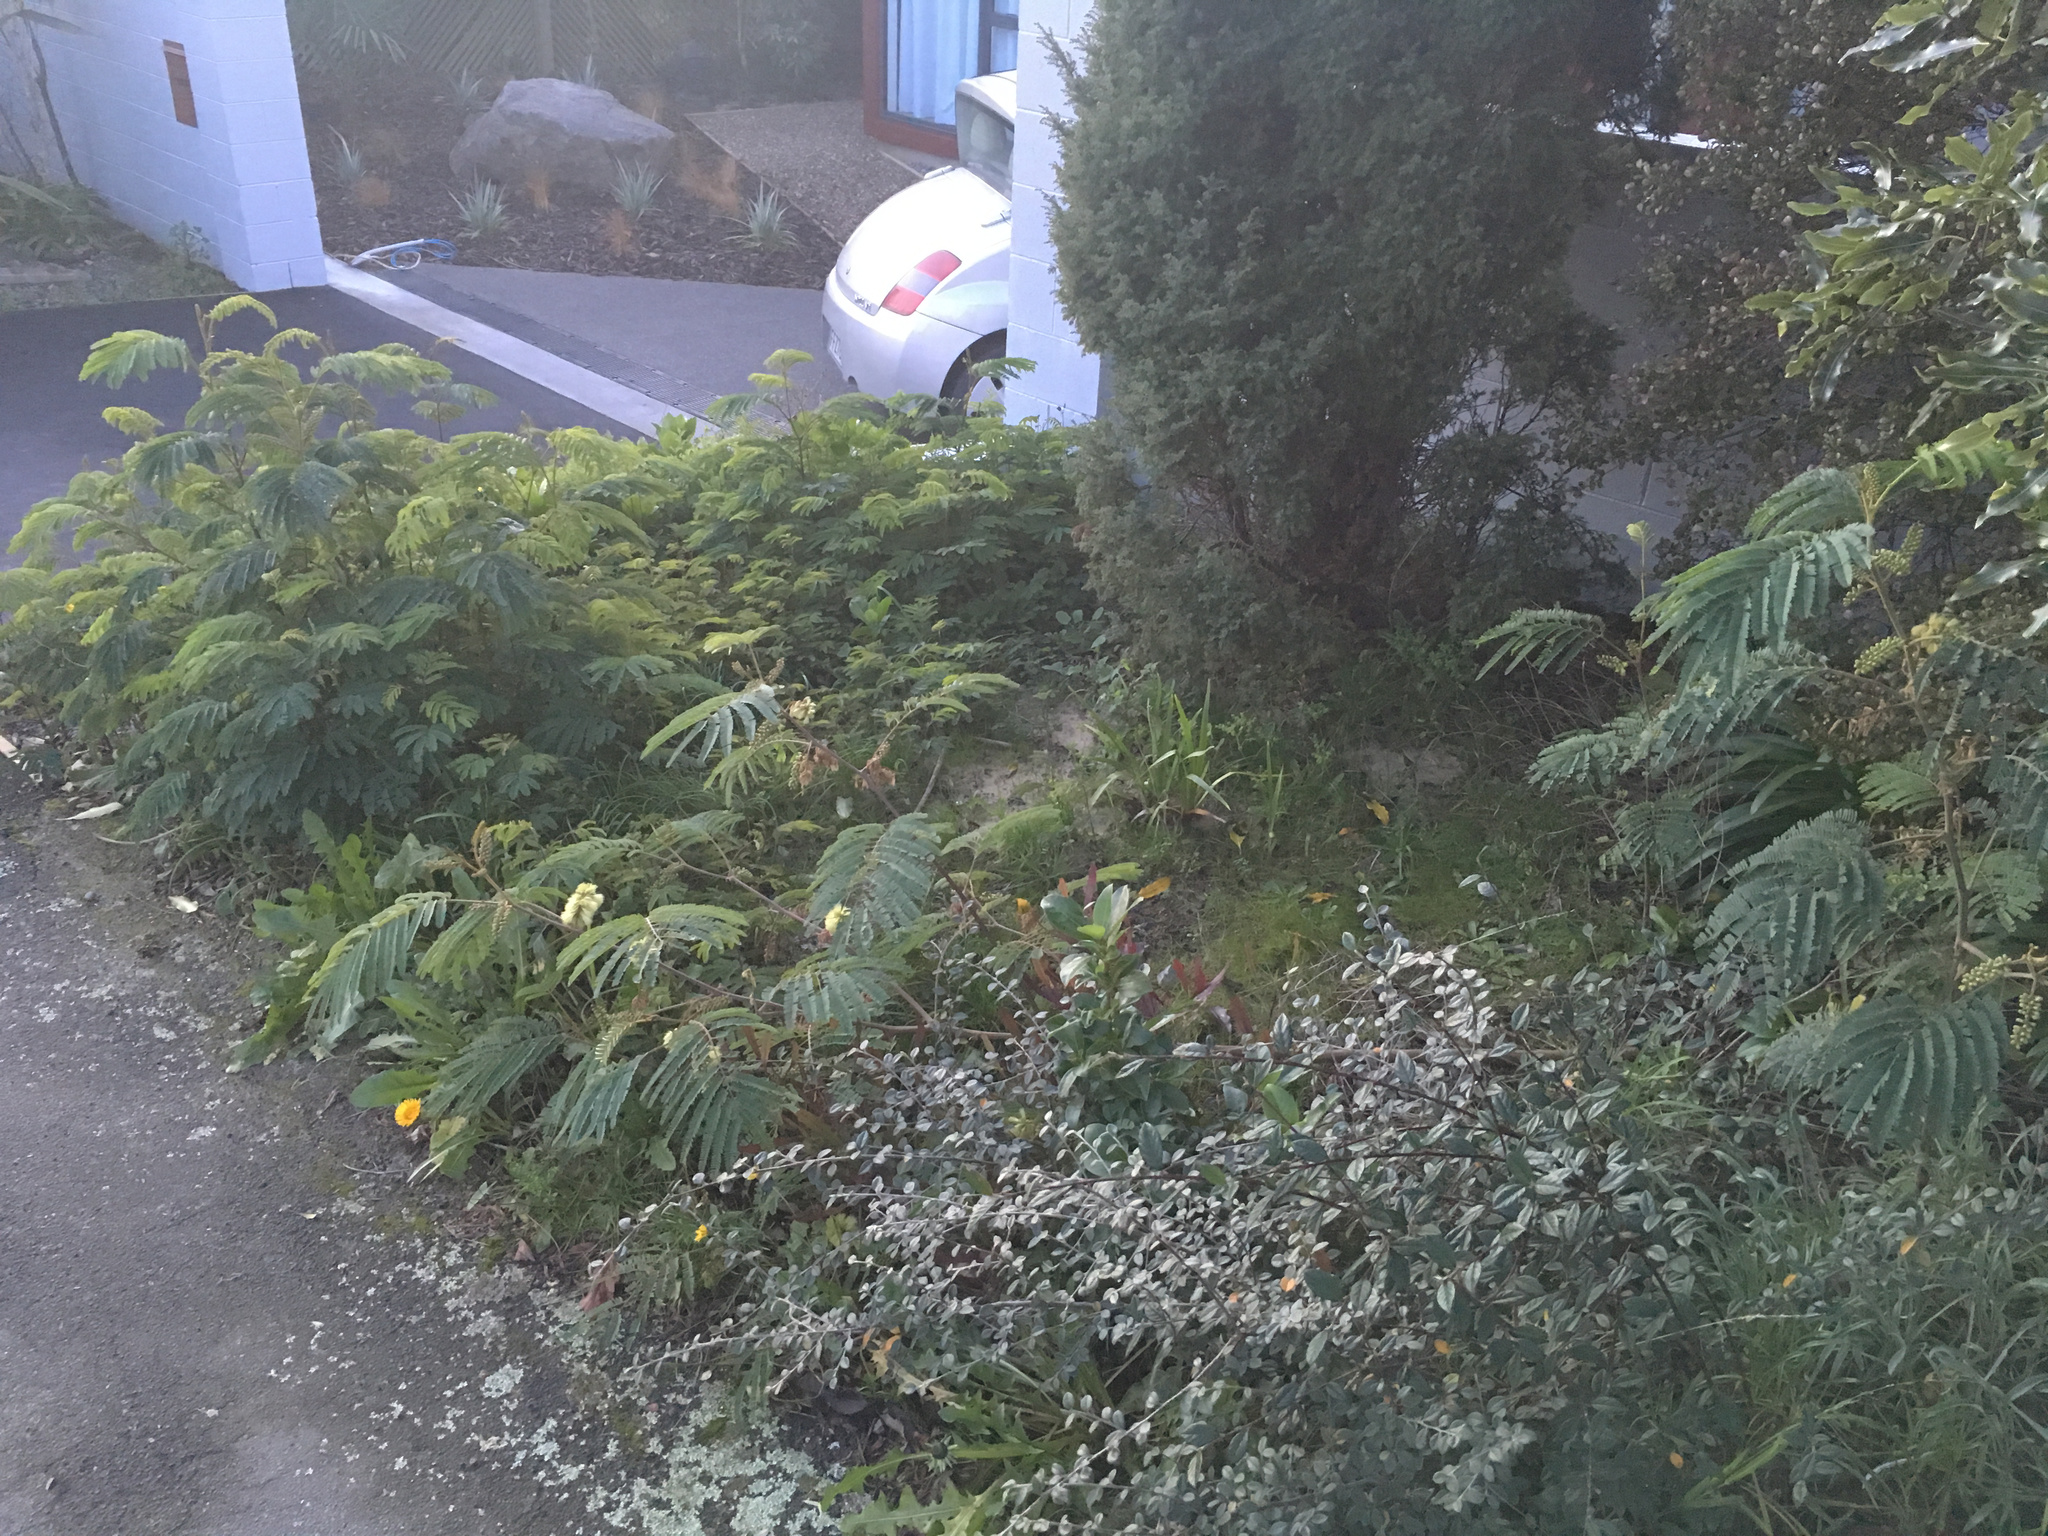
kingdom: Plantae
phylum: Tracheophyta
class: Magnoliopsida
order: Fabales
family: Fabaceae
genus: Paraserianthes
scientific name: Paraserianthes lophantha
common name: Plume albizia
